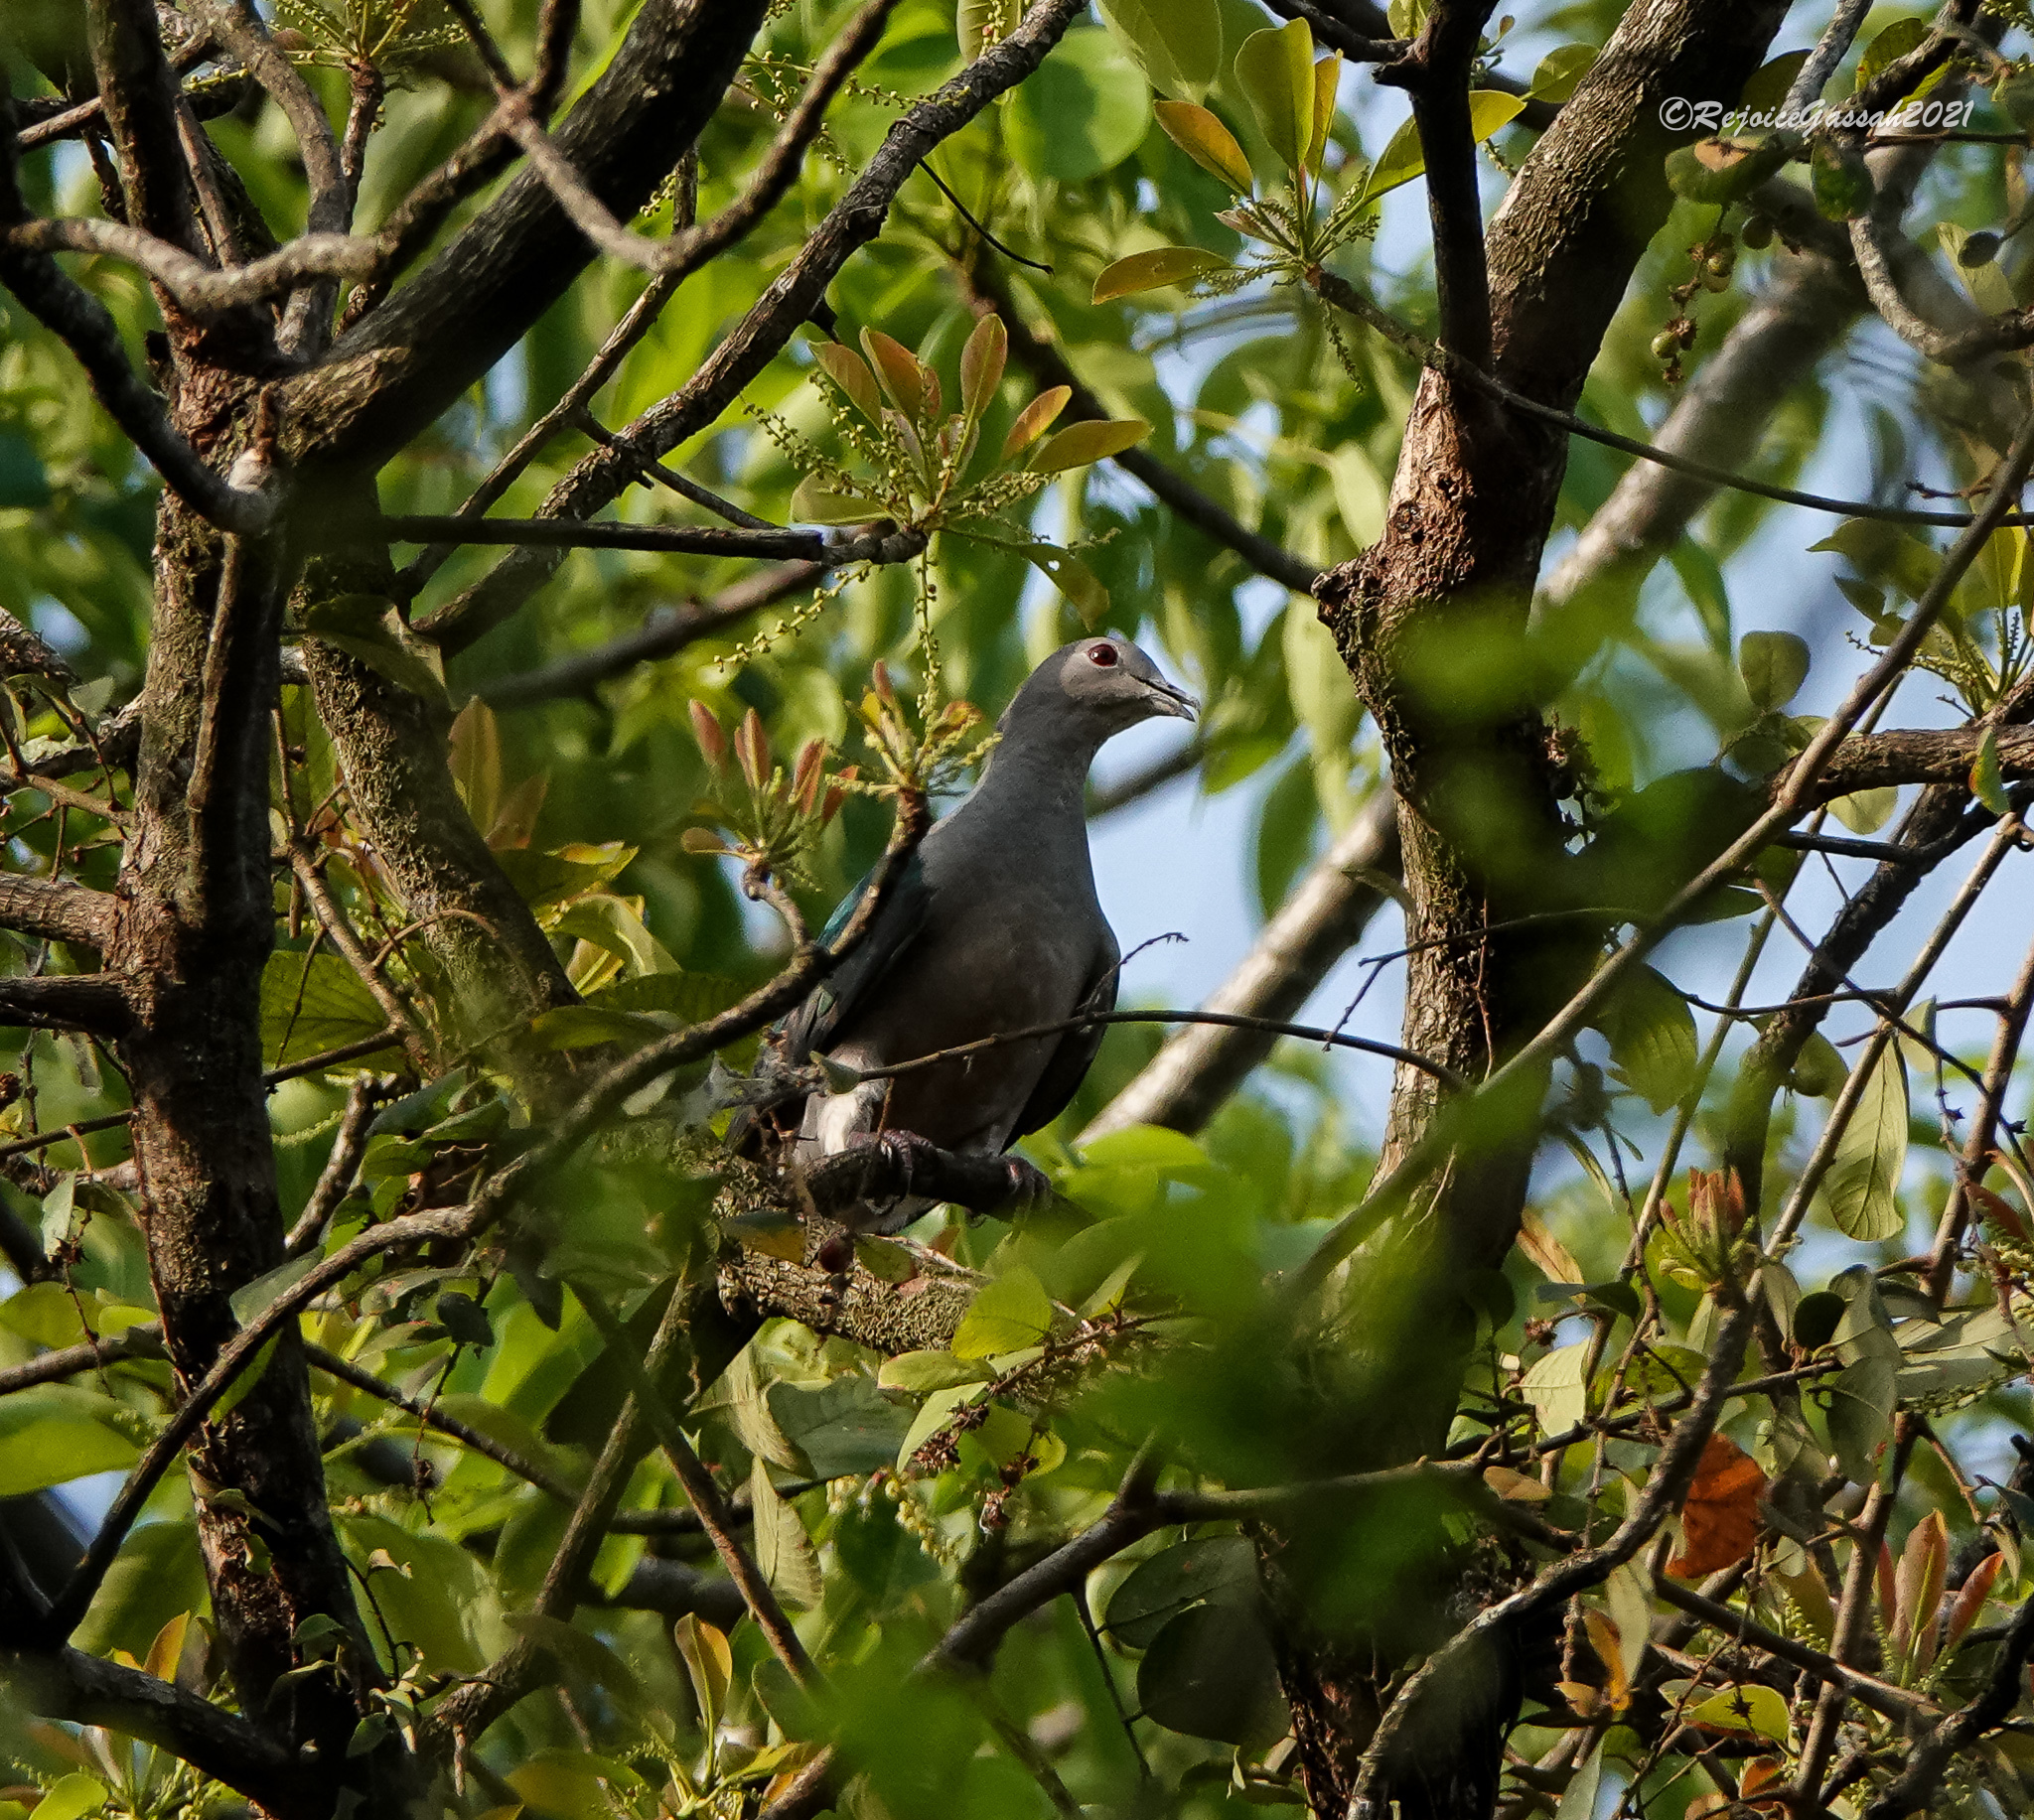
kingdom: Animalia
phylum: Chordata
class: Aves
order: Columbiformes
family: Columbidae
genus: Ducula
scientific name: Ducula aenea
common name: Green imperial pigeon
